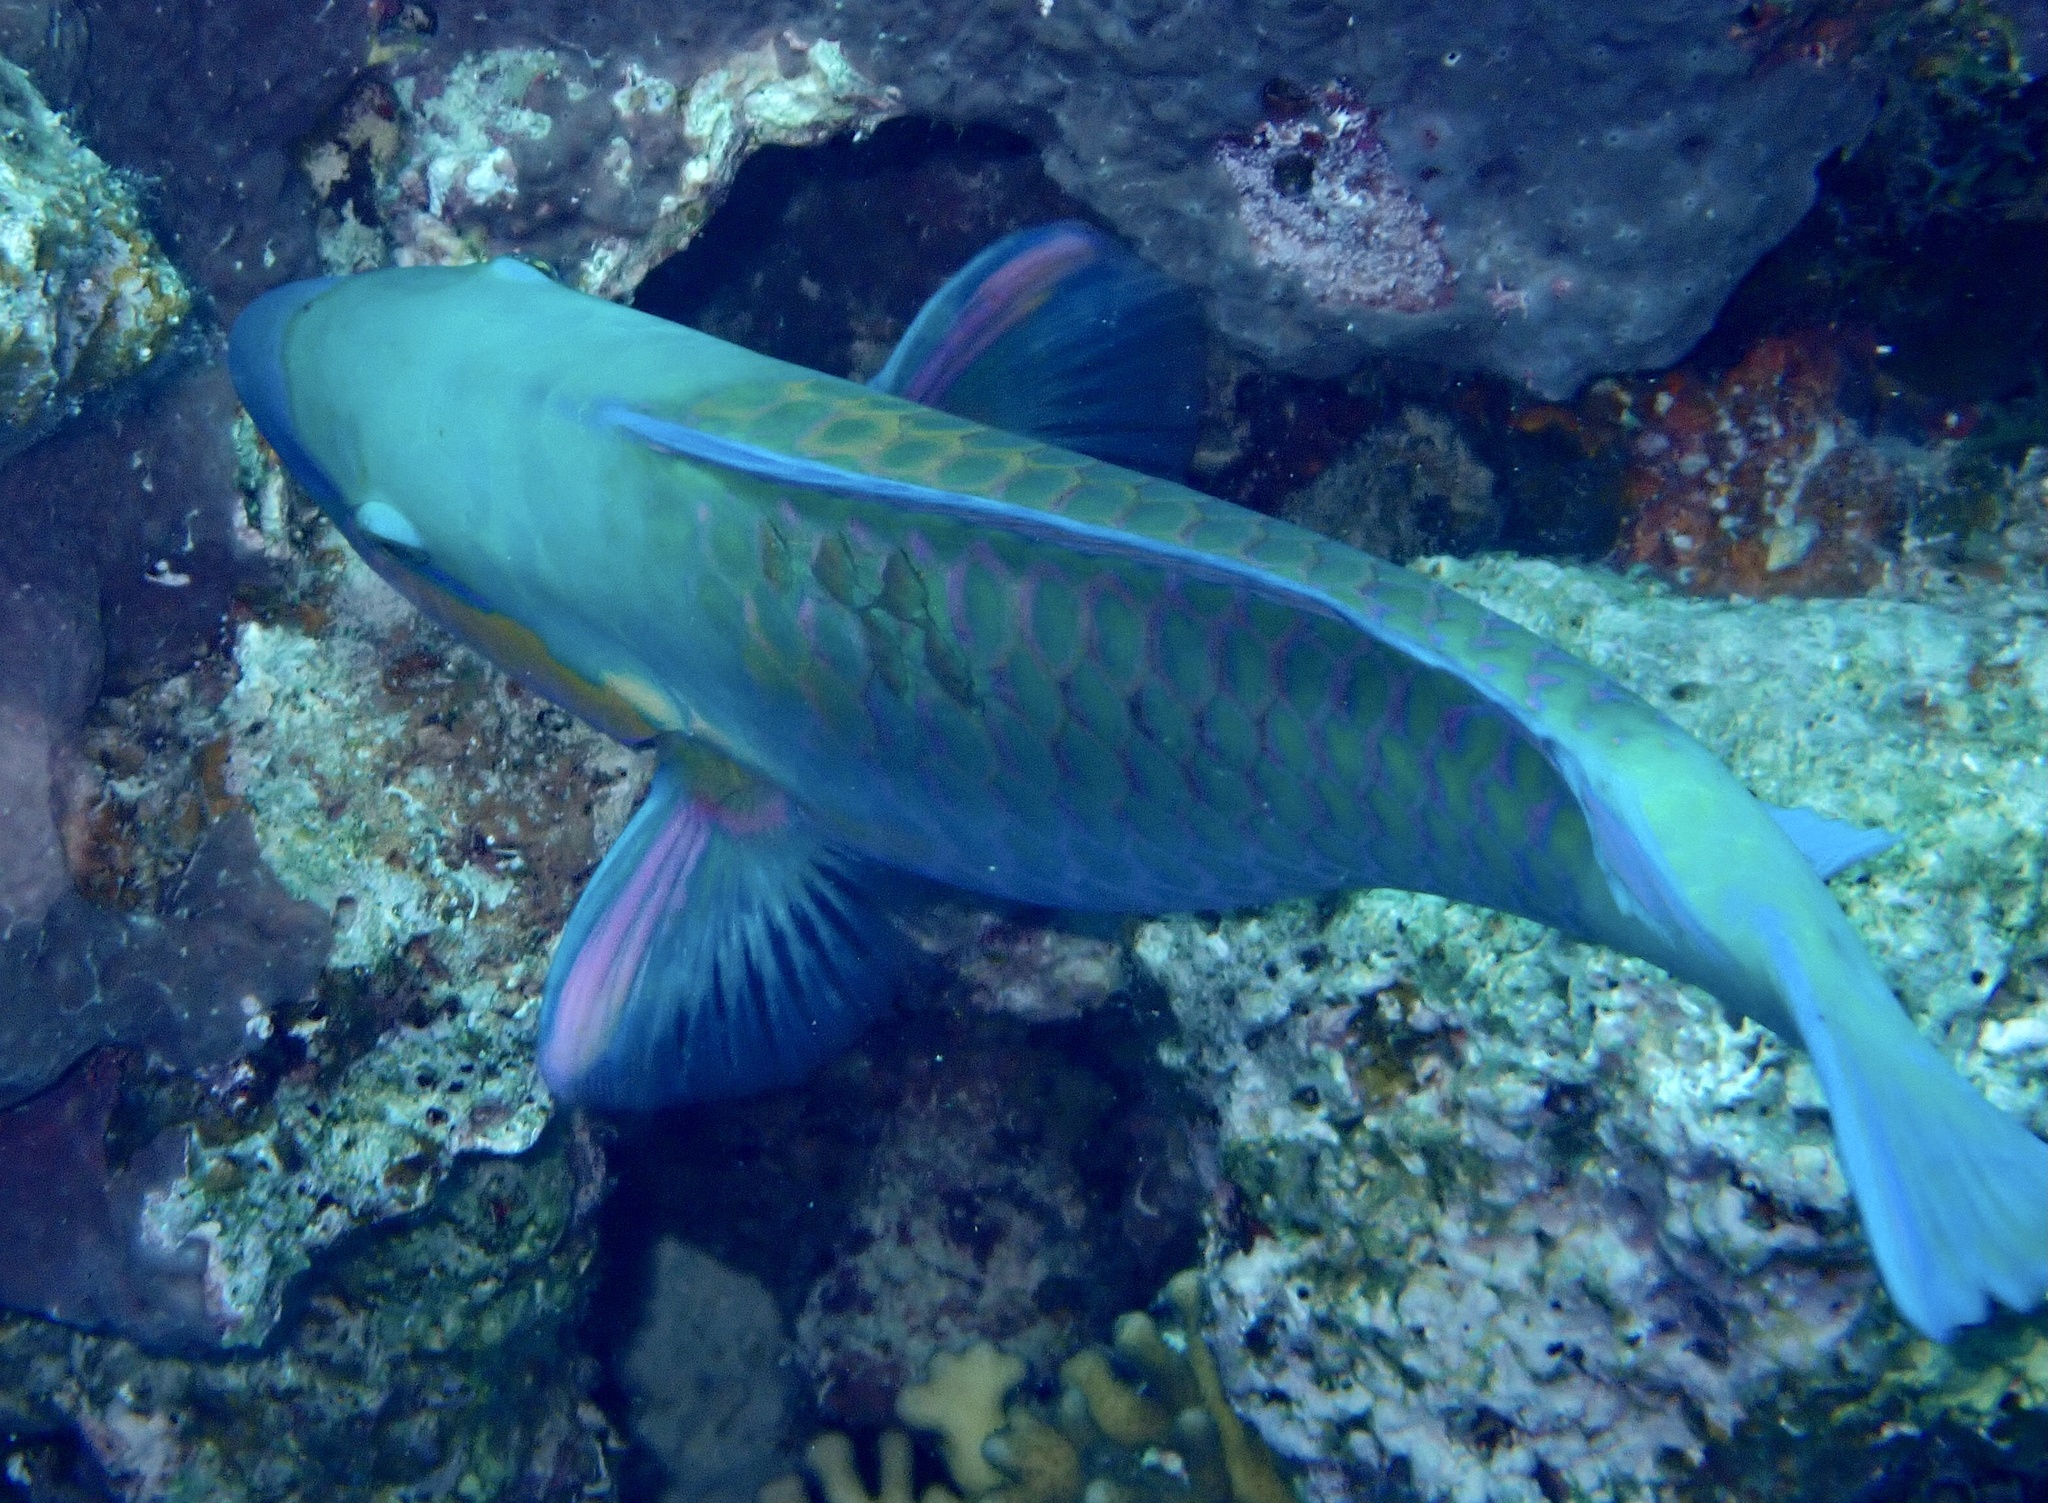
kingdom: Animalia
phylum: Chordata
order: Perciformes
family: Scaridae
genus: Chlorurus
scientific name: Chlorurus sordidus
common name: Bullethead parrotfish
